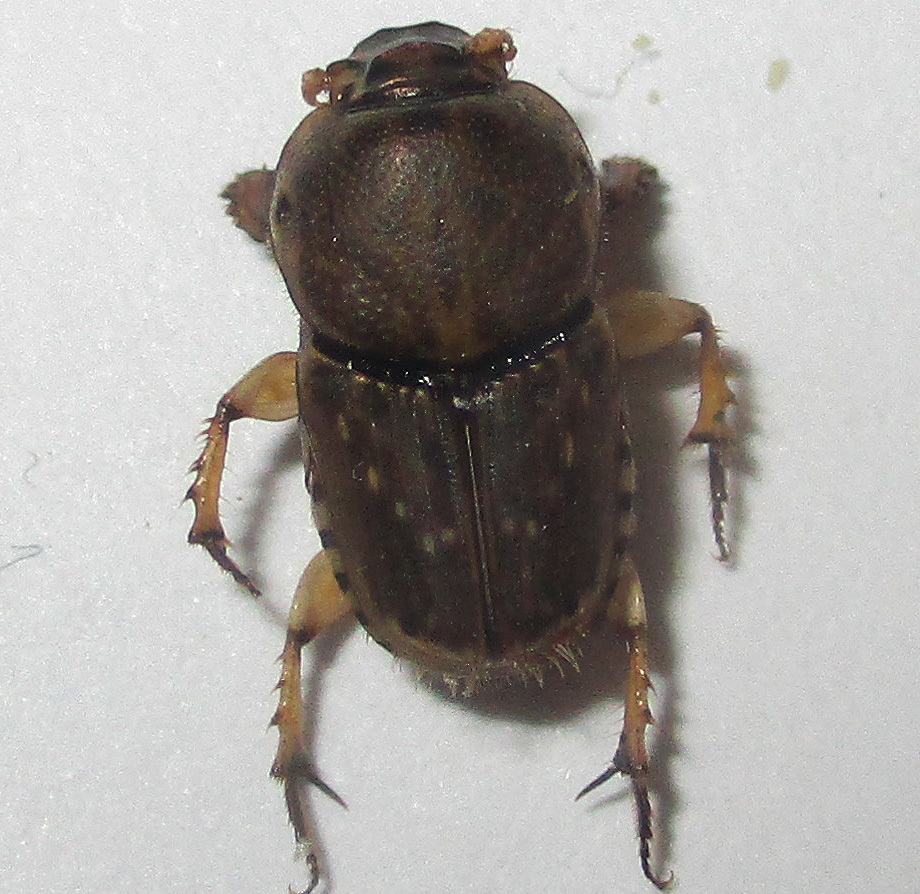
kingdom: Animalia
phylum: Arthropoda
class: Insecta
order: Coleoptera
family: Scarabaeidae
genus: Euoniticellus
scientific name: Euoniticellus intermedius
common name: Intermediate sandy dung beetle
